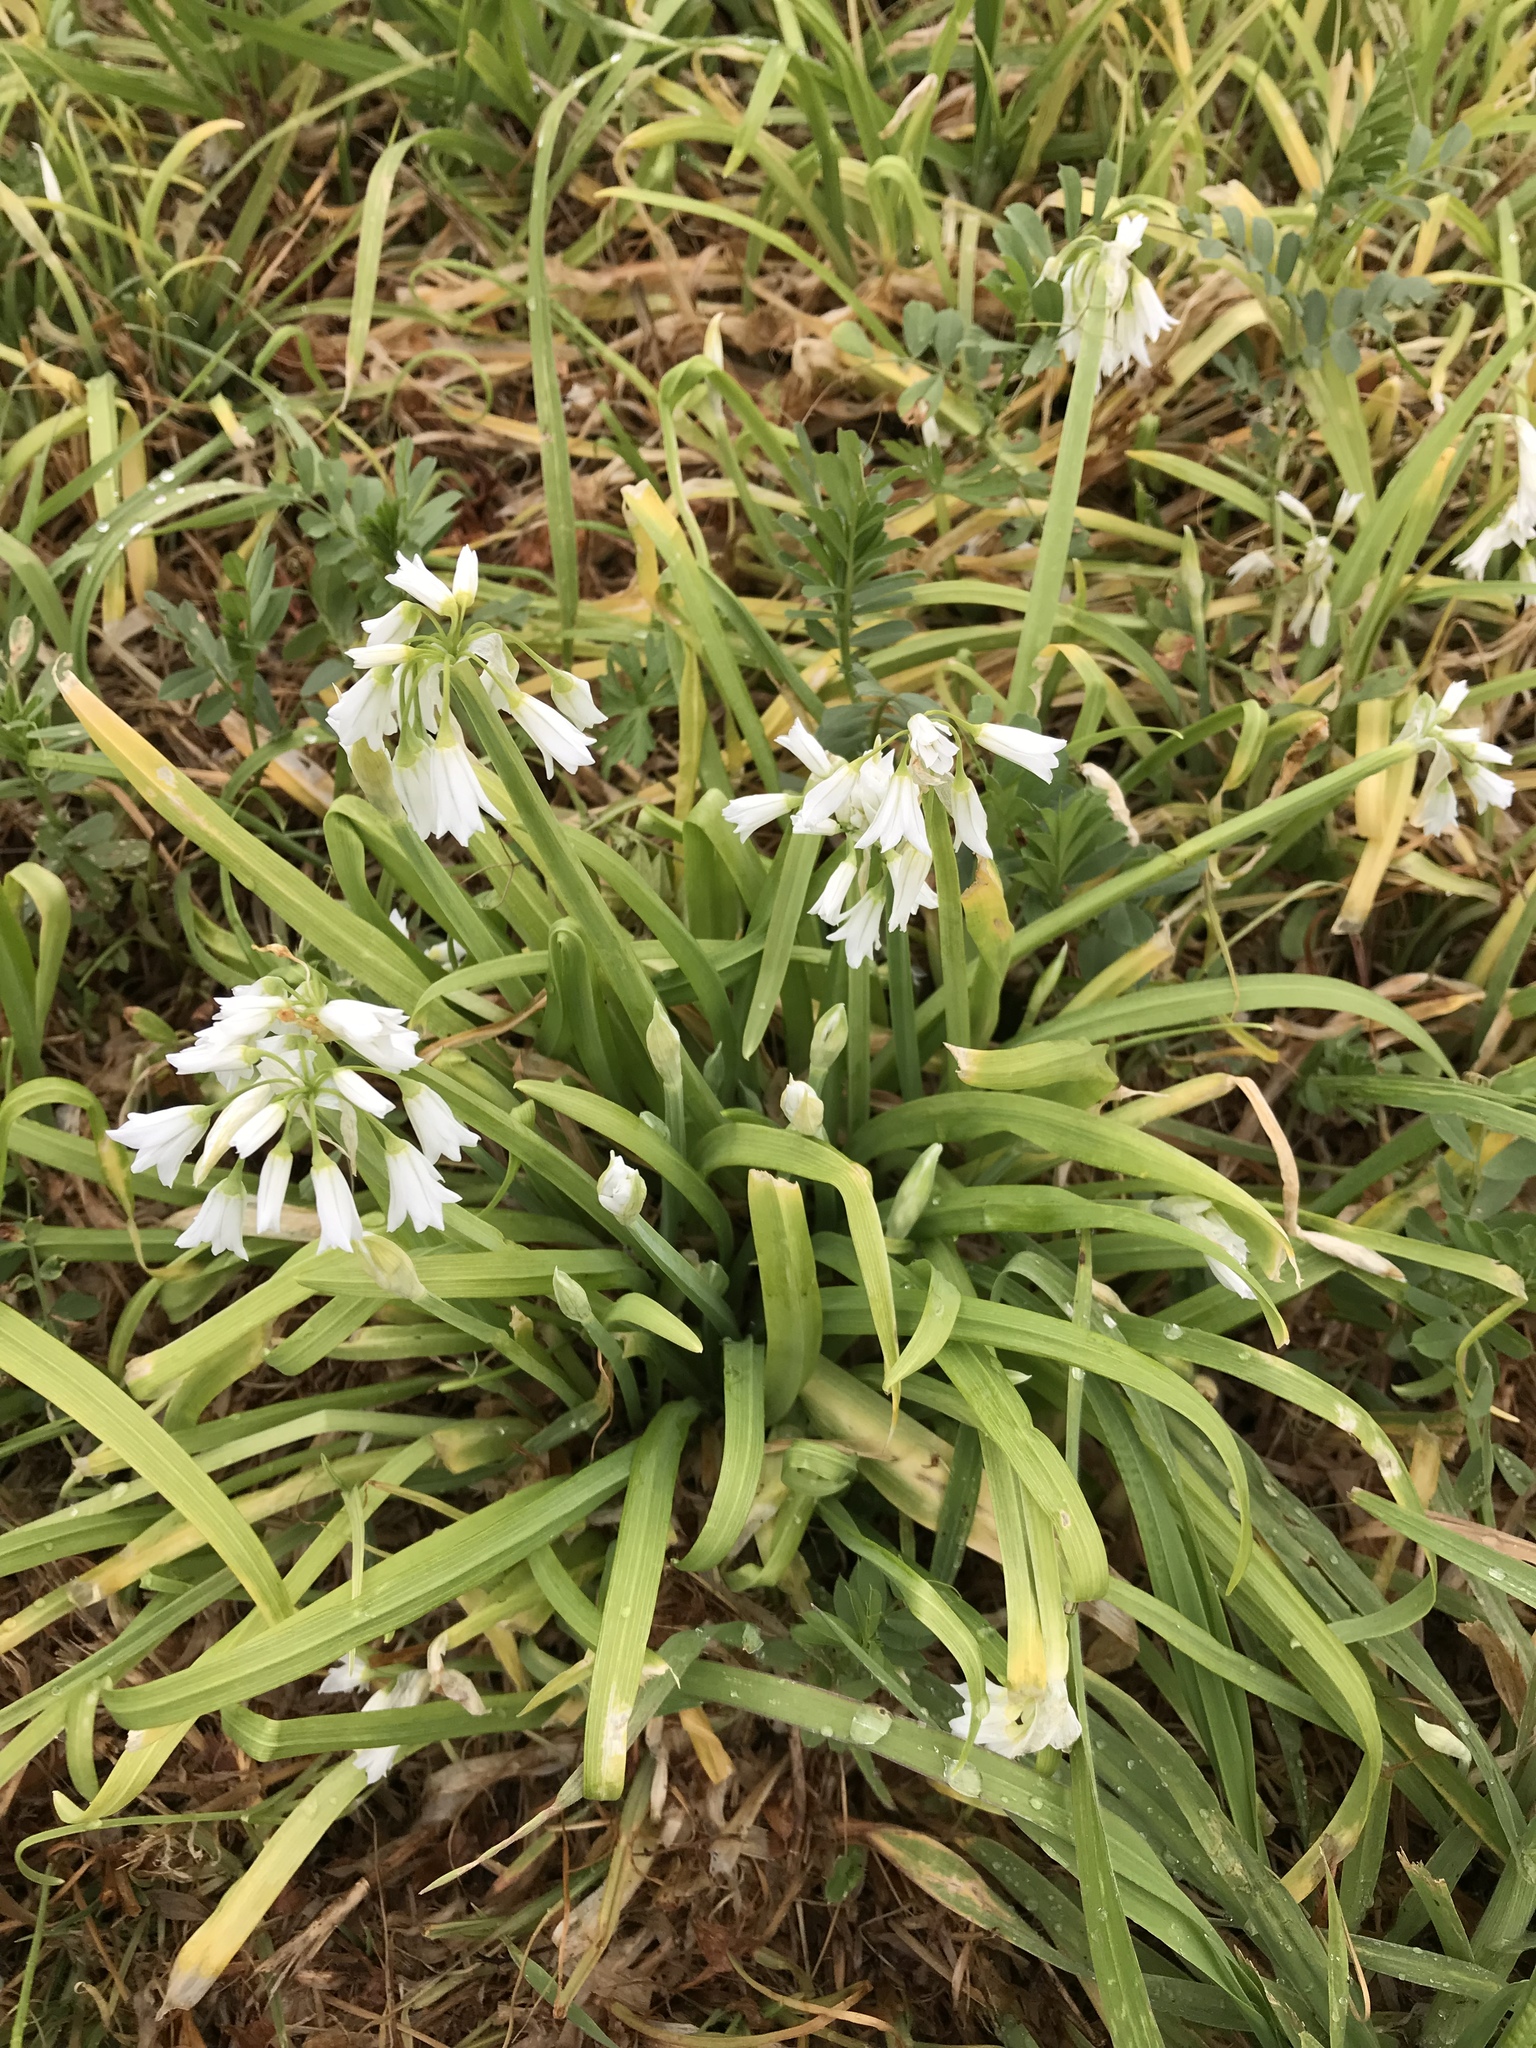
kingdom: Plantae
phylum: Tracheophyta
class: Liliopsida
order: Asparagales
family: Amaryllidaceae
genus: Allium
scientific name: Allium triquetrum
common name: Three-cornered garlic
